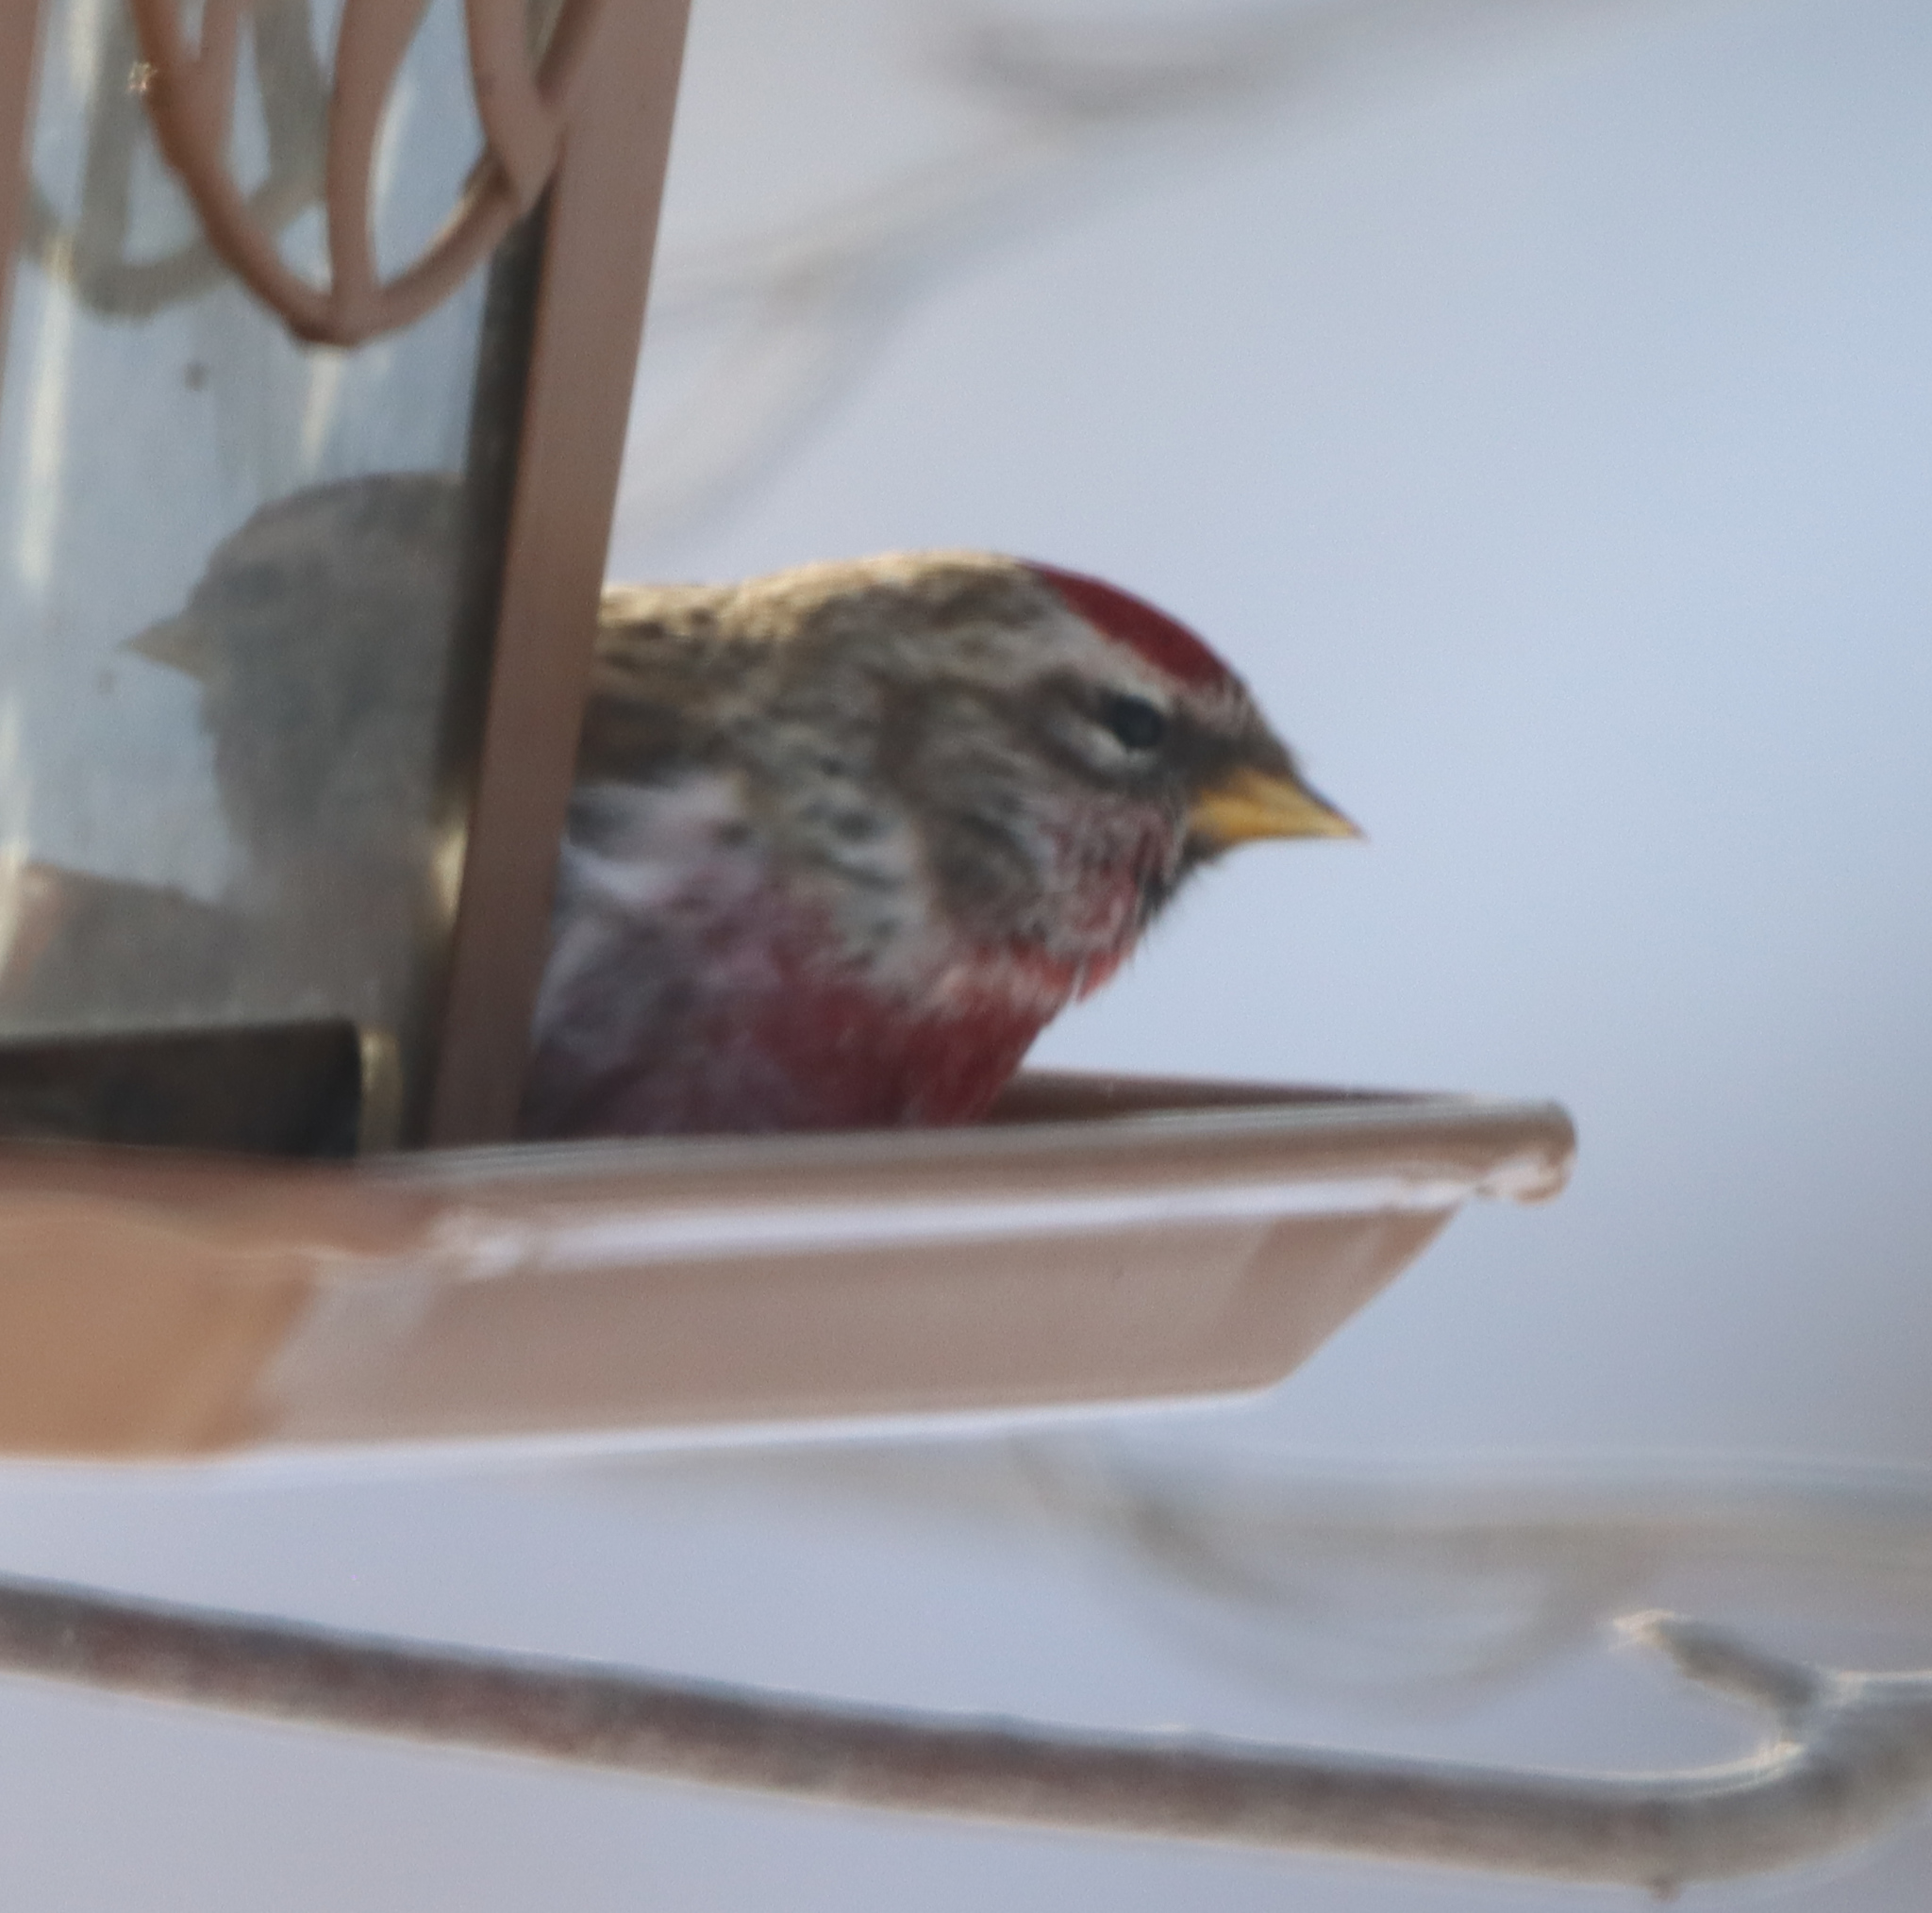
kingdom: Animalia
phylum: Chordata
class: Aves
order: Passeriformes
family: Fringillidae
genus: Acanthis
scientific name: Acanthis flammea
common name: Common redpoll
